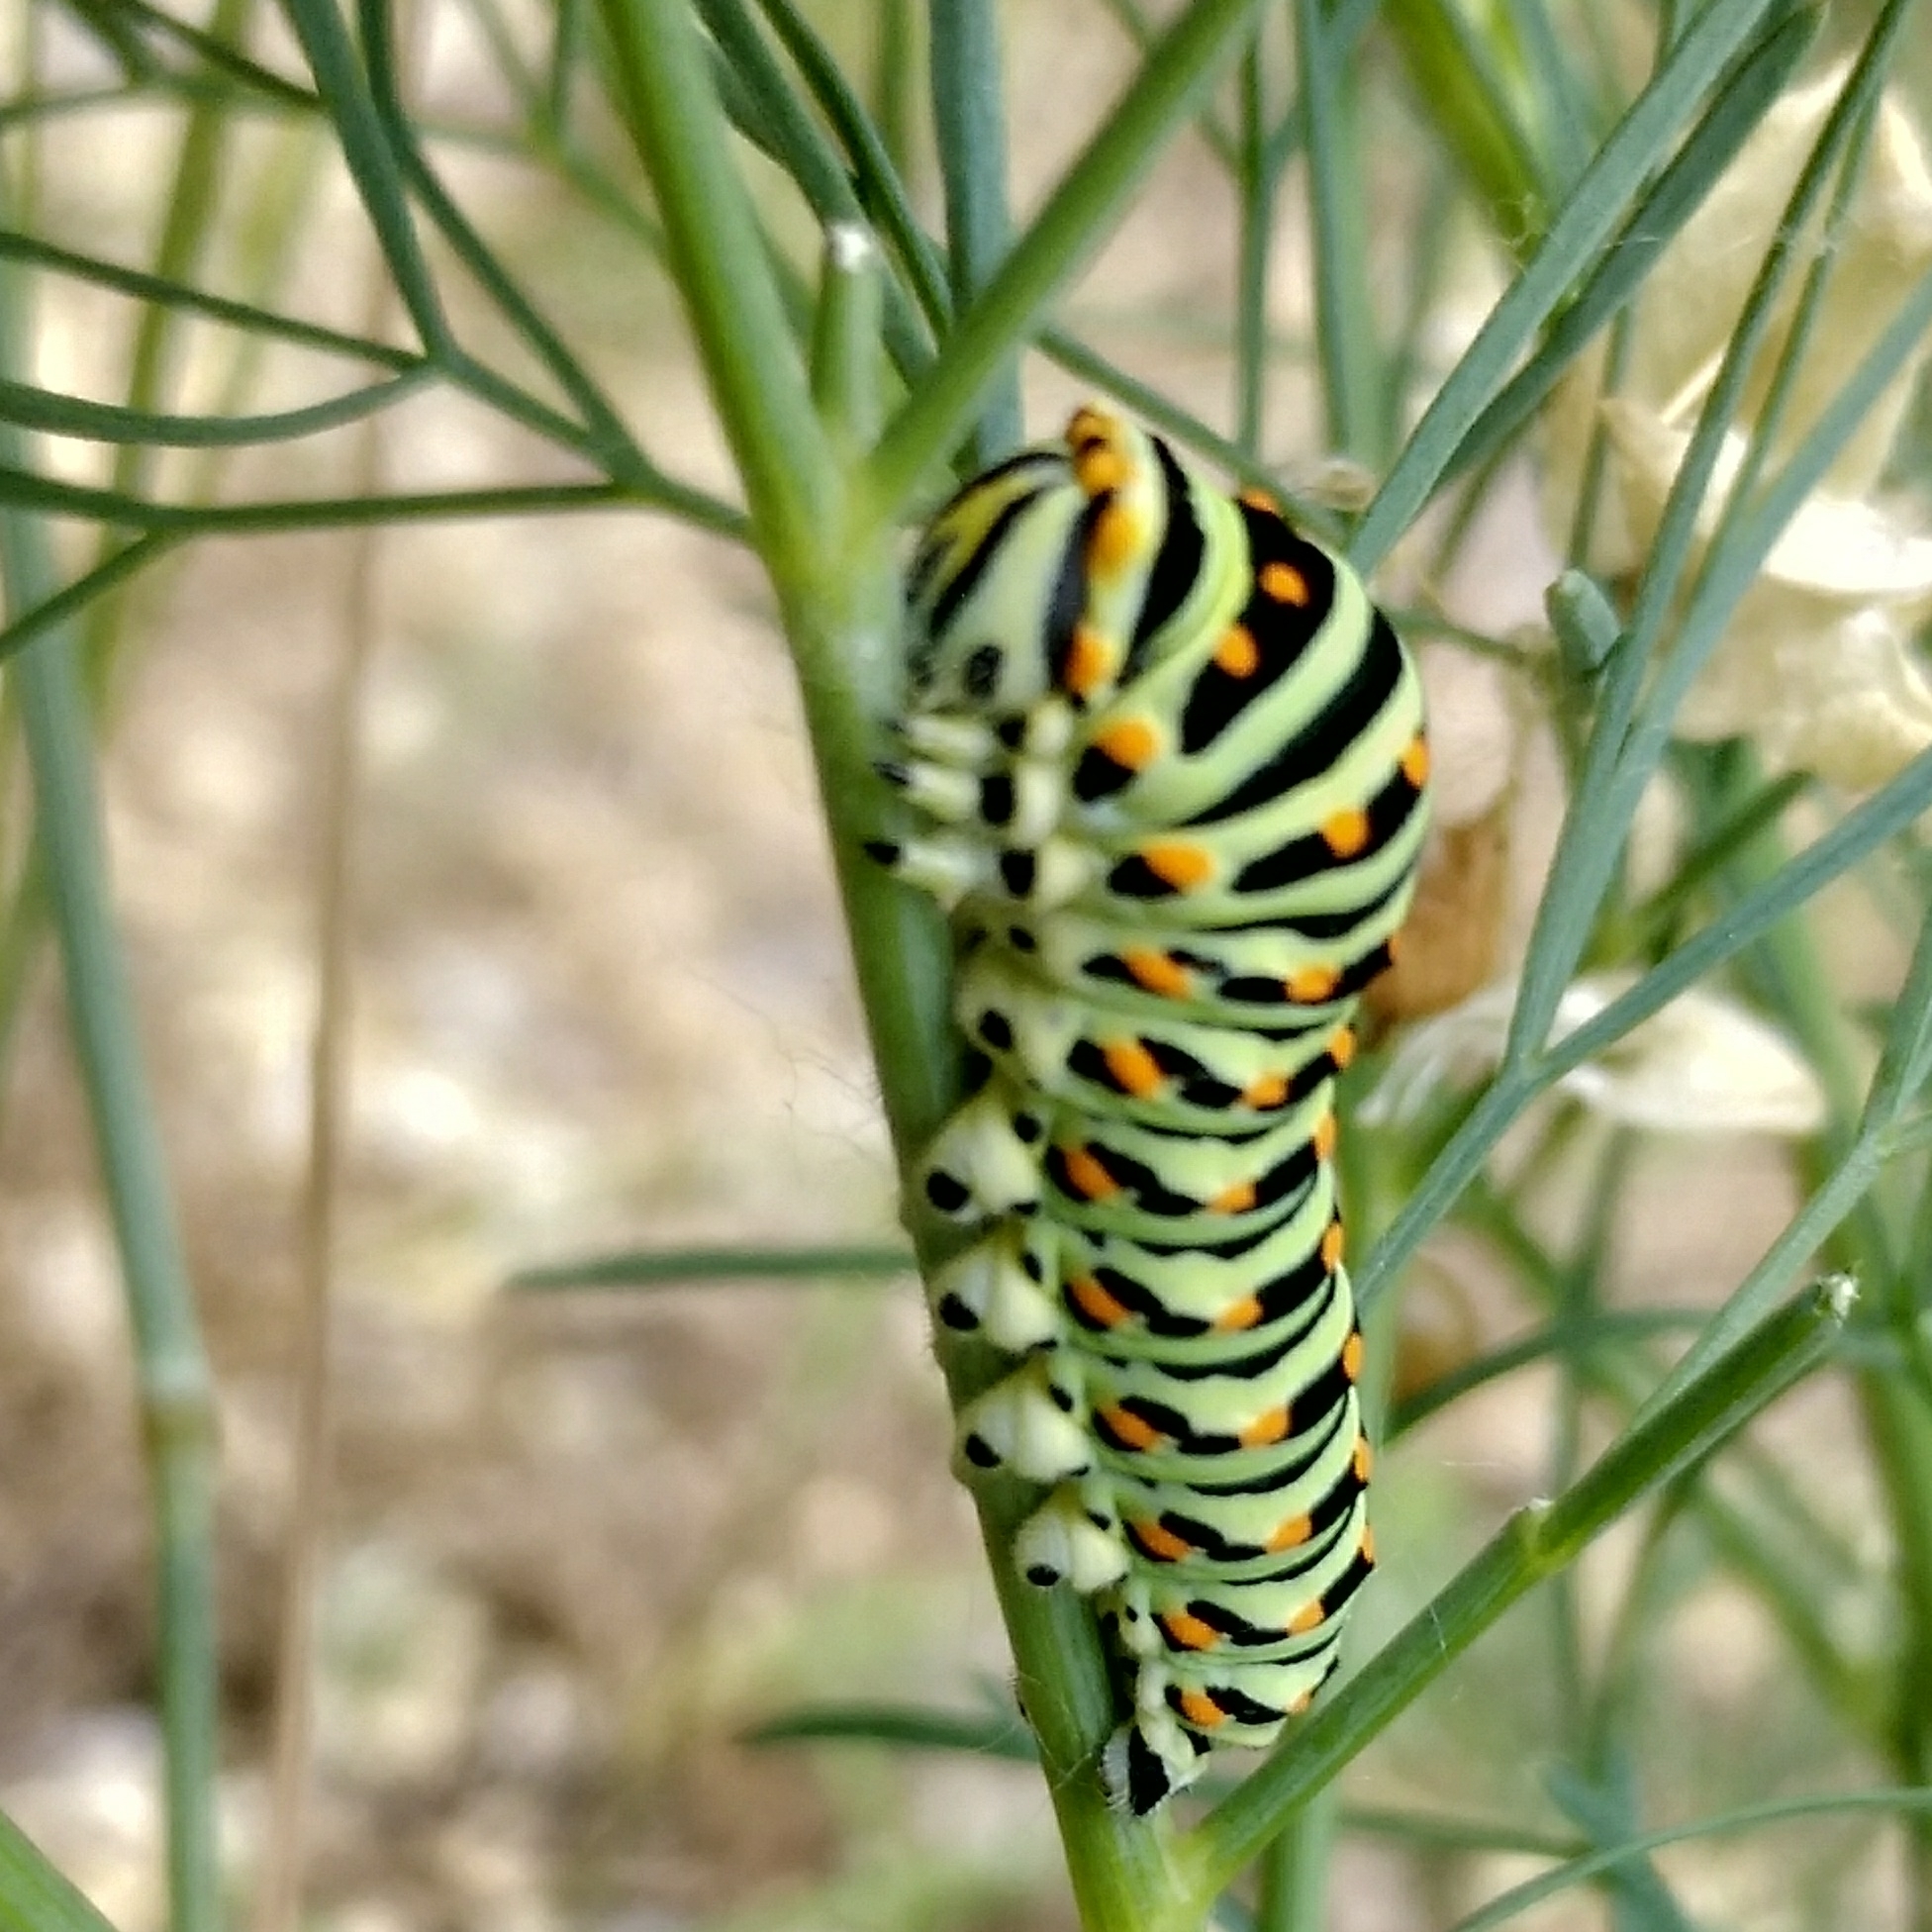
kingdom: Animalia
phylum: Arthropoda
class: Insecta
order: Lepidoptera
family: Papilionidae
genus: Papilio
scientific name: Papilio machaon
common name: Swallowtail
